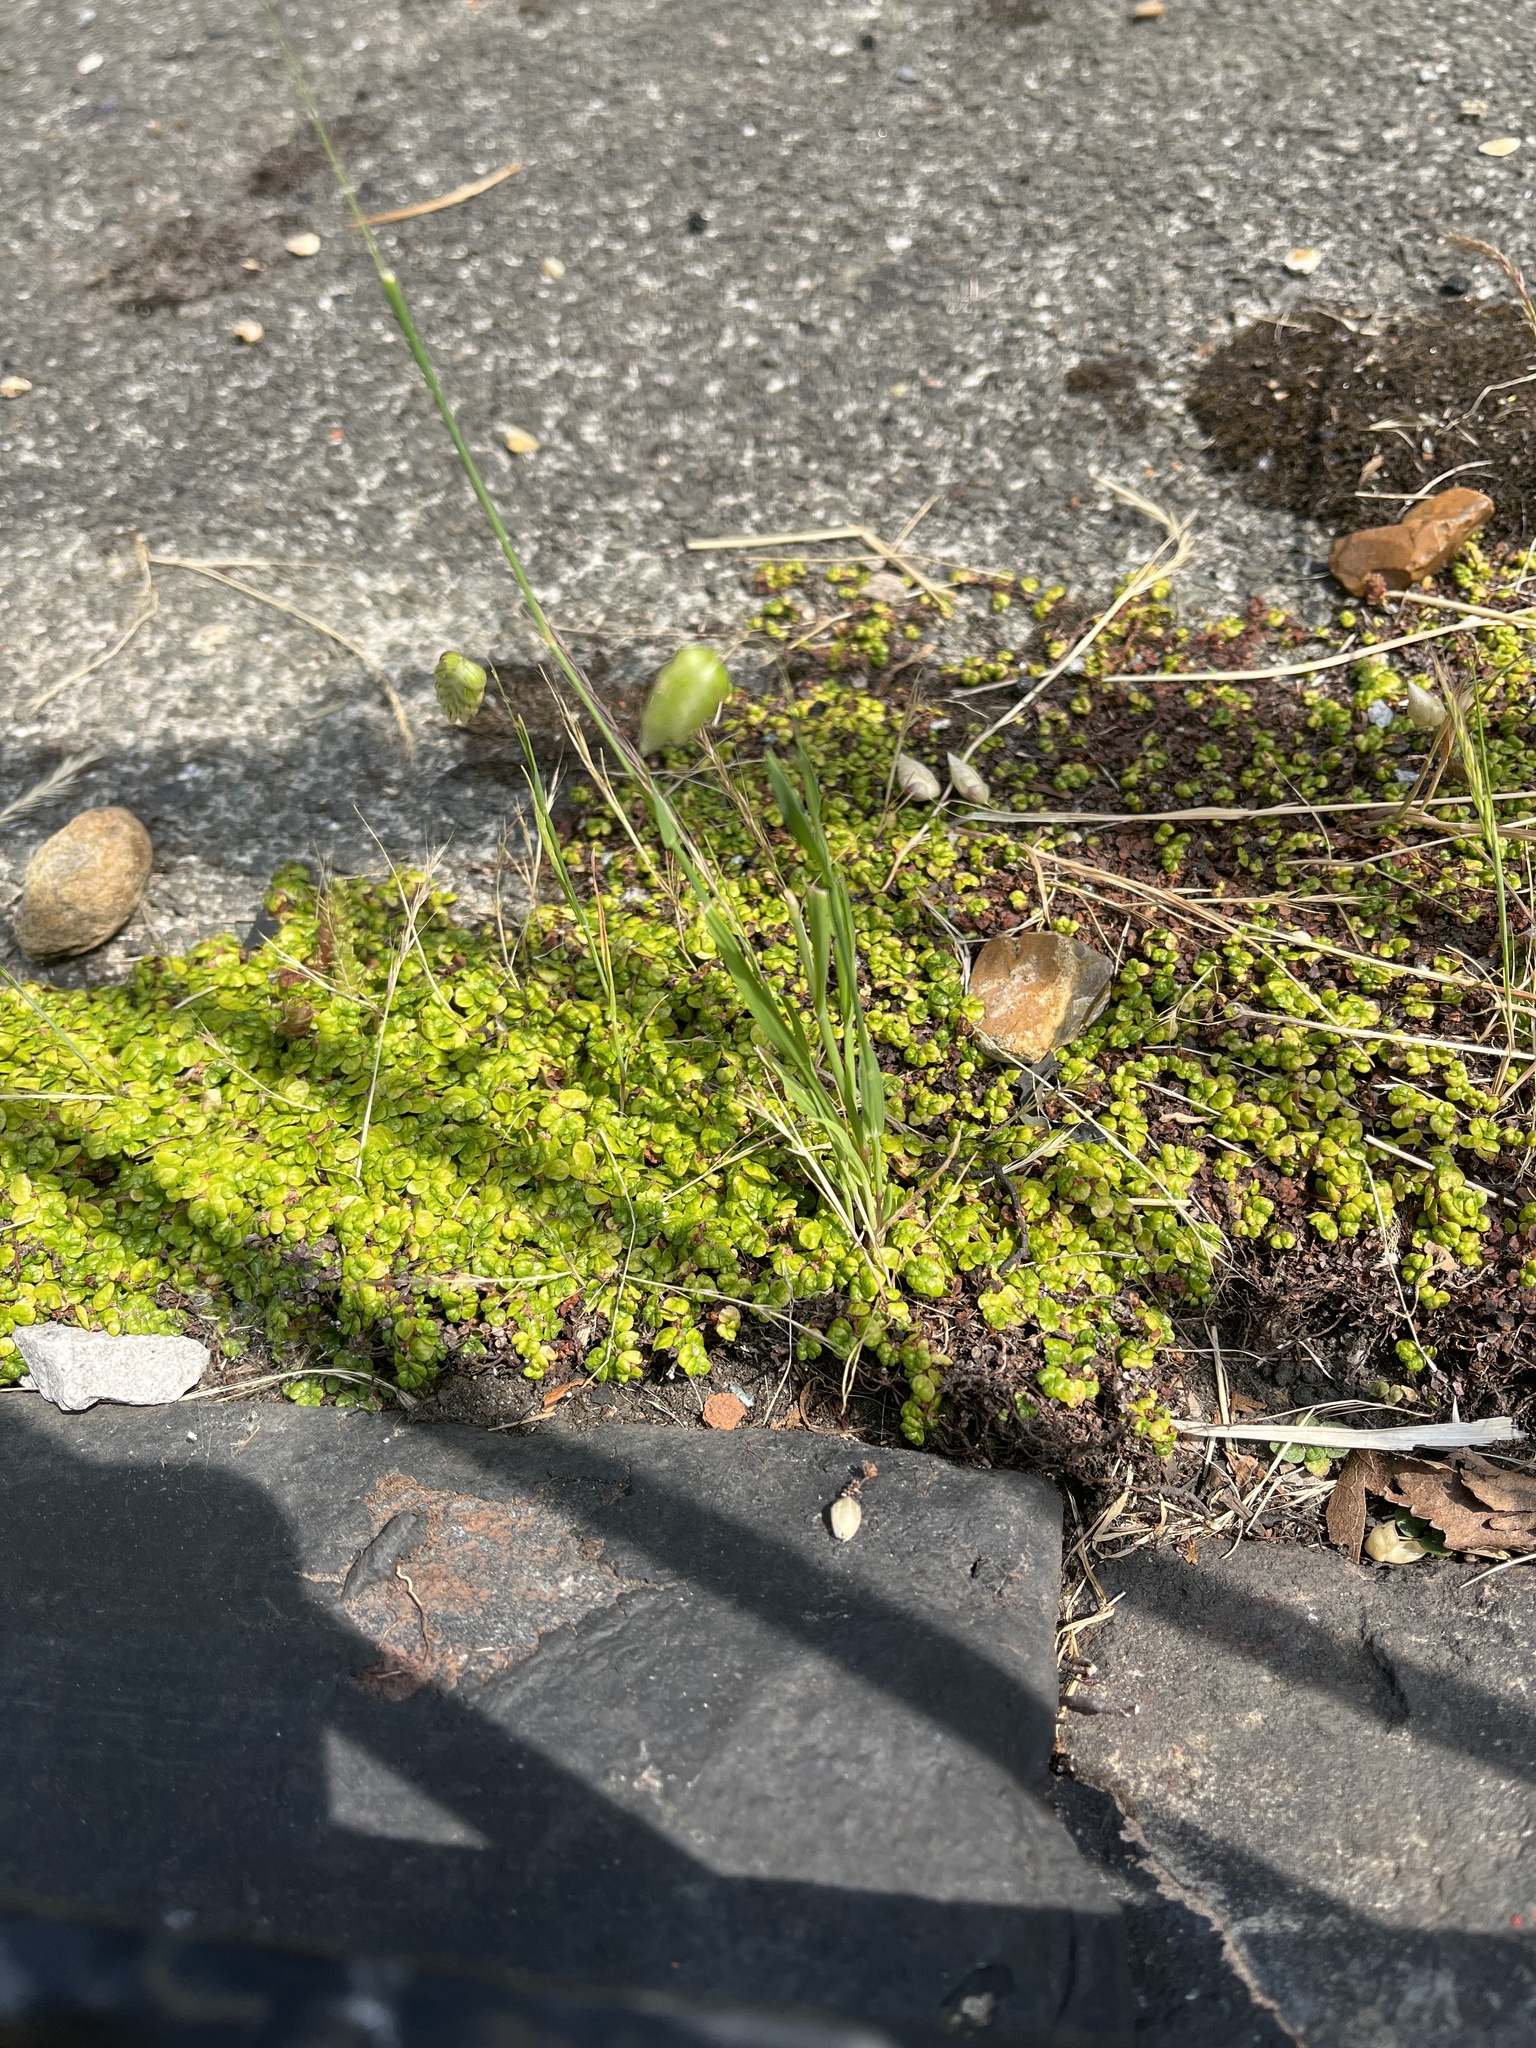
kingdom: Plantae
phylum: Tracheophyta
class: Liliopsida
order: Poales
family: Poaceae
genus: Briza
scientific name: Briza maxima
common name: Big quakinggrass
